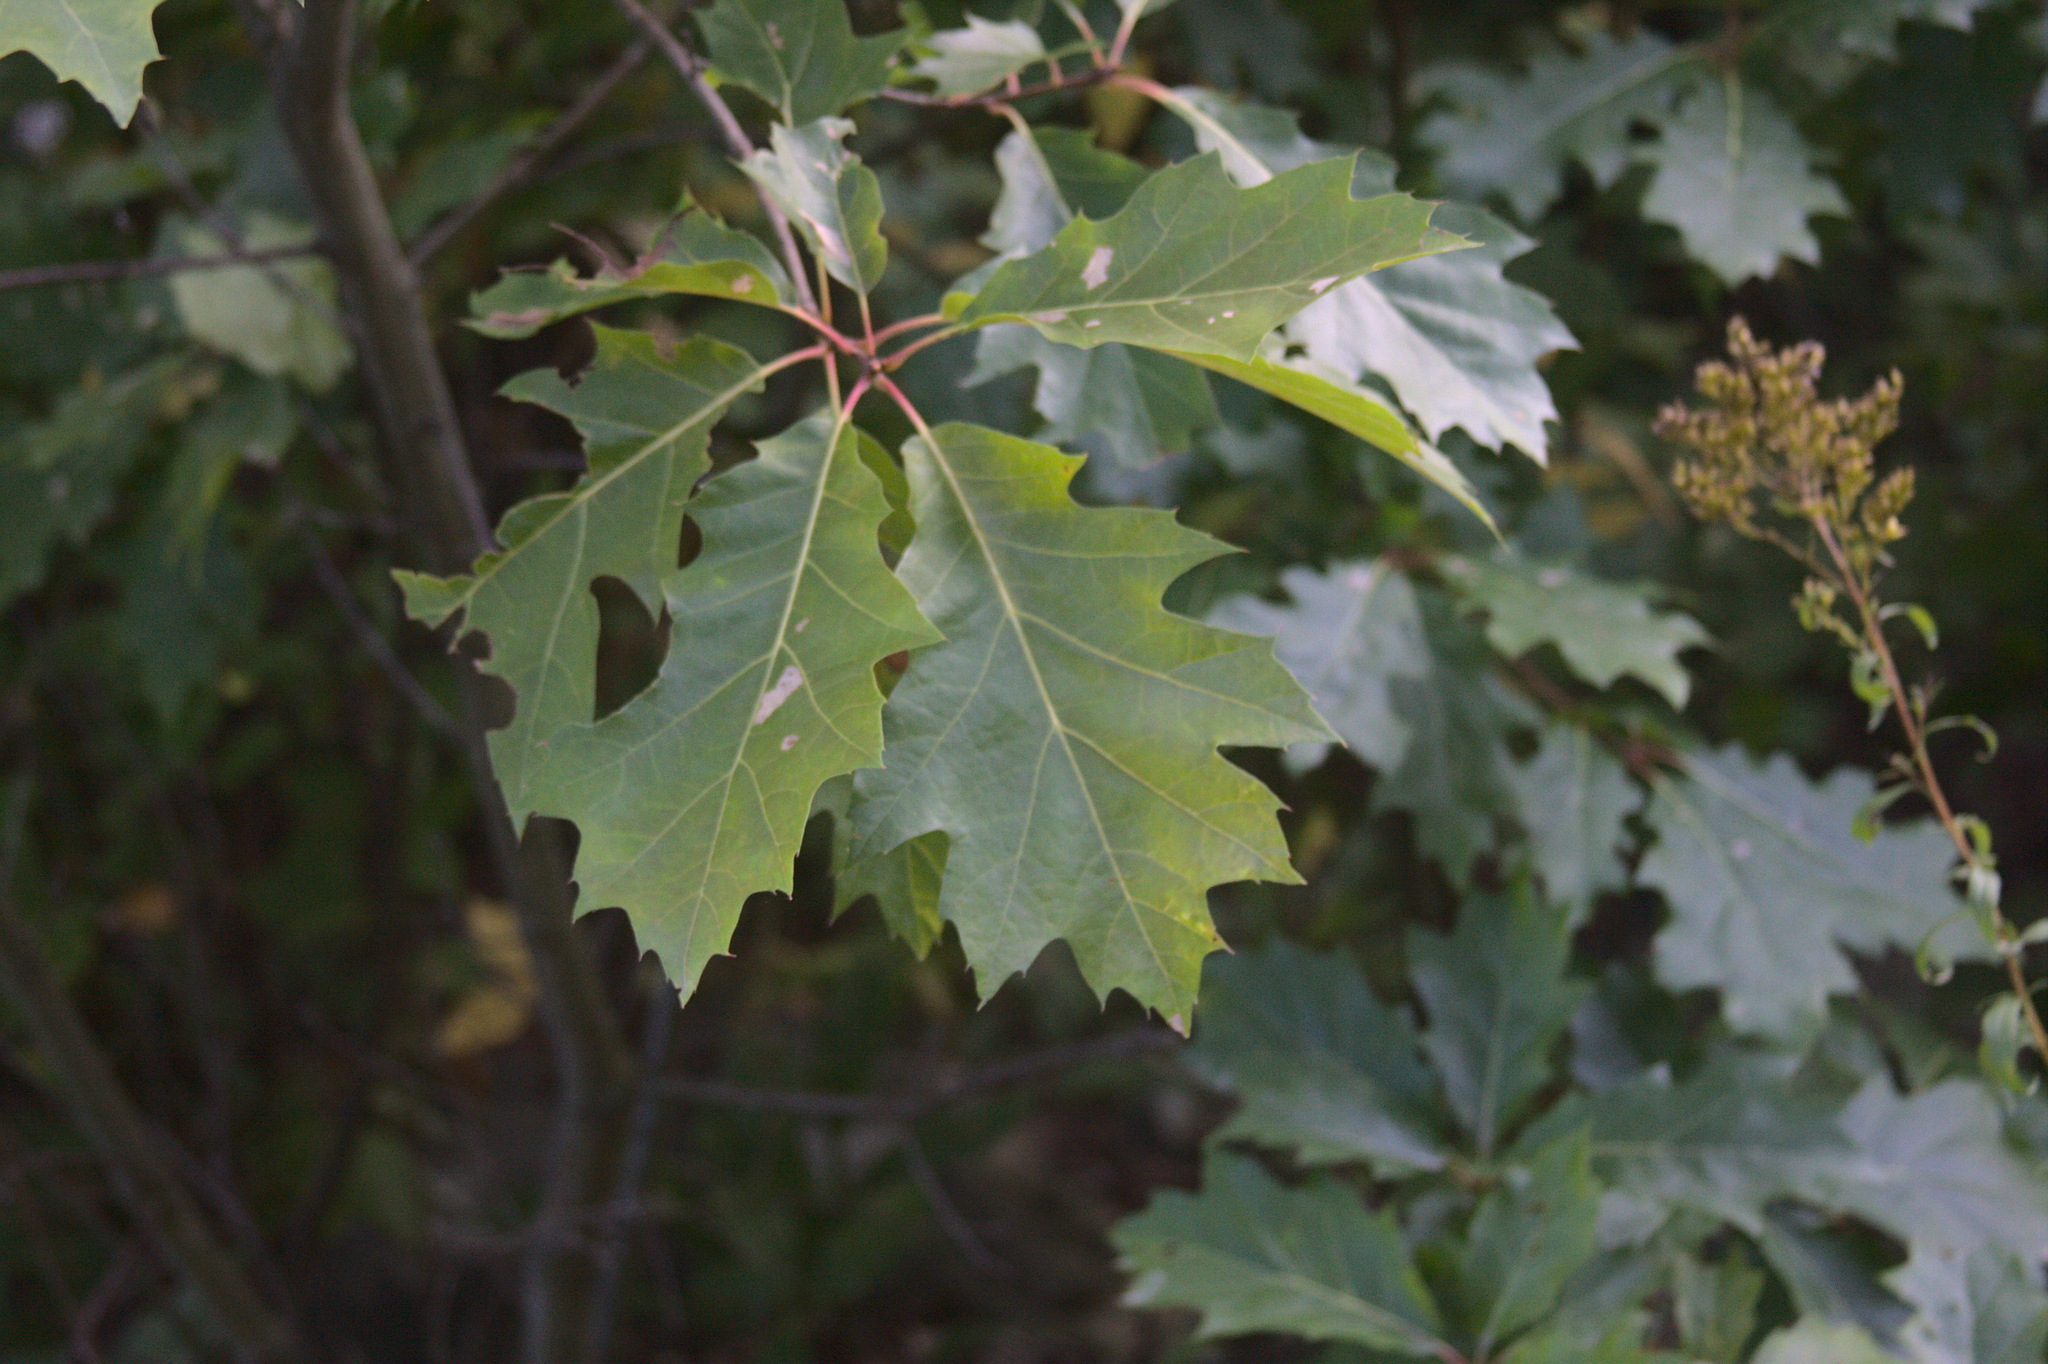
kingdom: Plantae
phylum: Tracheophyta
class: Magnoliopsida
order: Fagales
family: Fagaceae
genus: Quercus
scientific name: Quercus rubra
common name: Red oak
